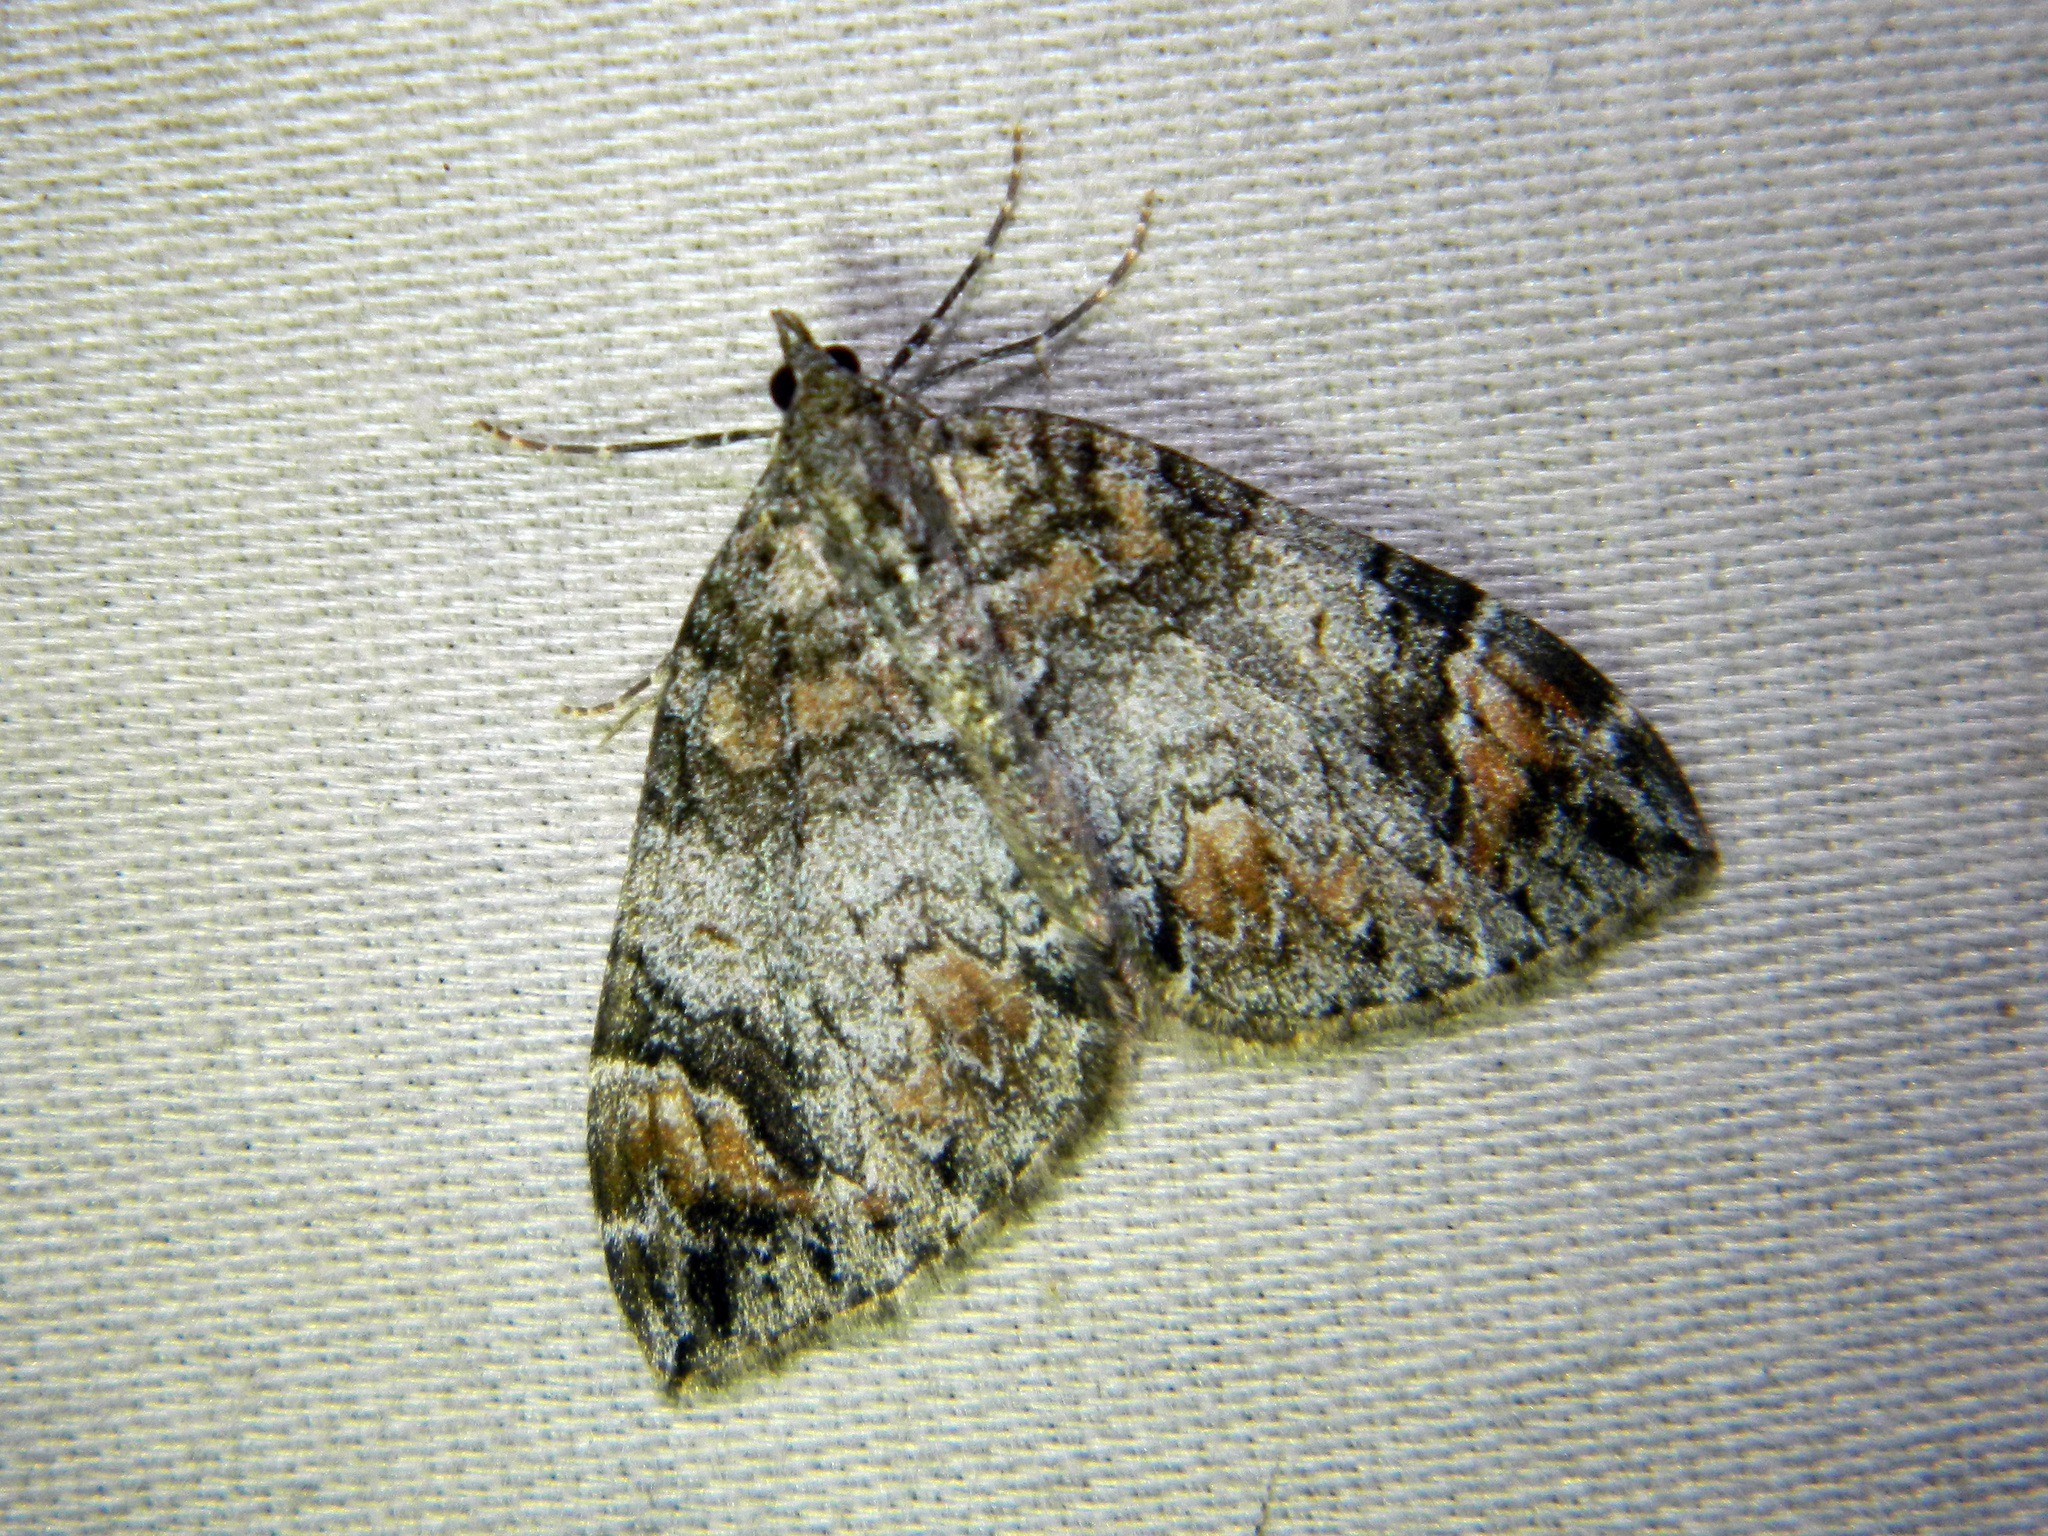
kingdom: Animalia
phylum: Arthropoda
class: Insecta
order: Lepidoptera
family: Geometridae
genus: Dysstroma
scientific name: Dysstroma citrata
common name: Dark marbled carpet
